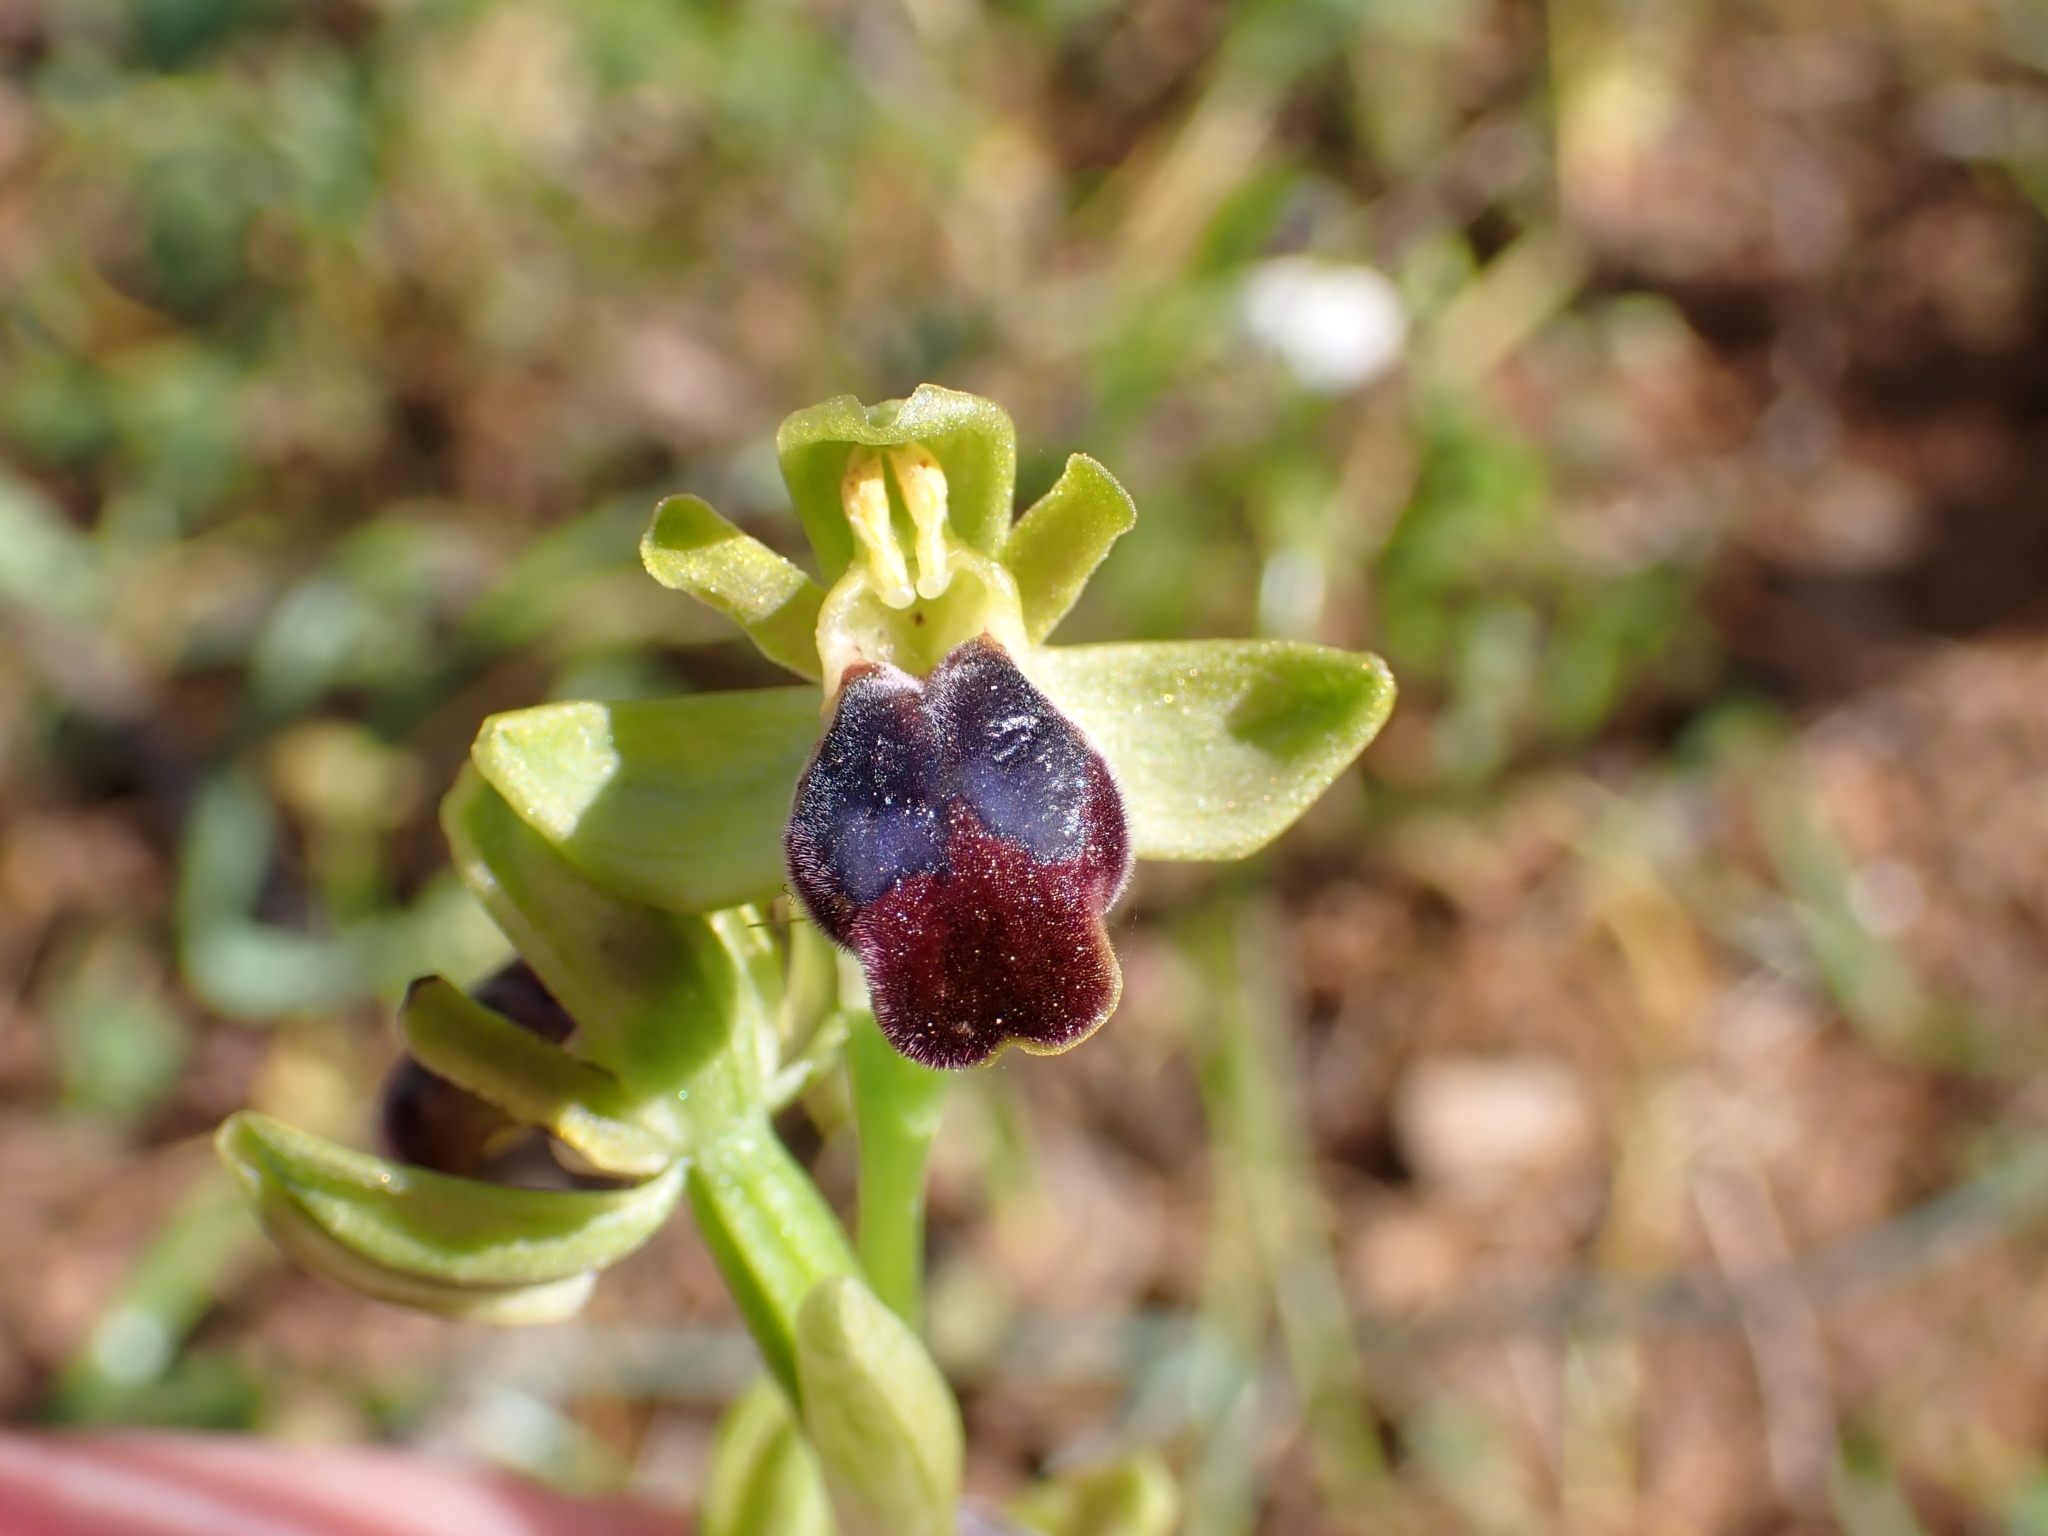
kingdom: Plantae
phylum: Tracheophyta
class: Liliopsida
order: Asparagales
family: Orchidaceae
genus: Ophrys
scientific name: Ophrys fusca
